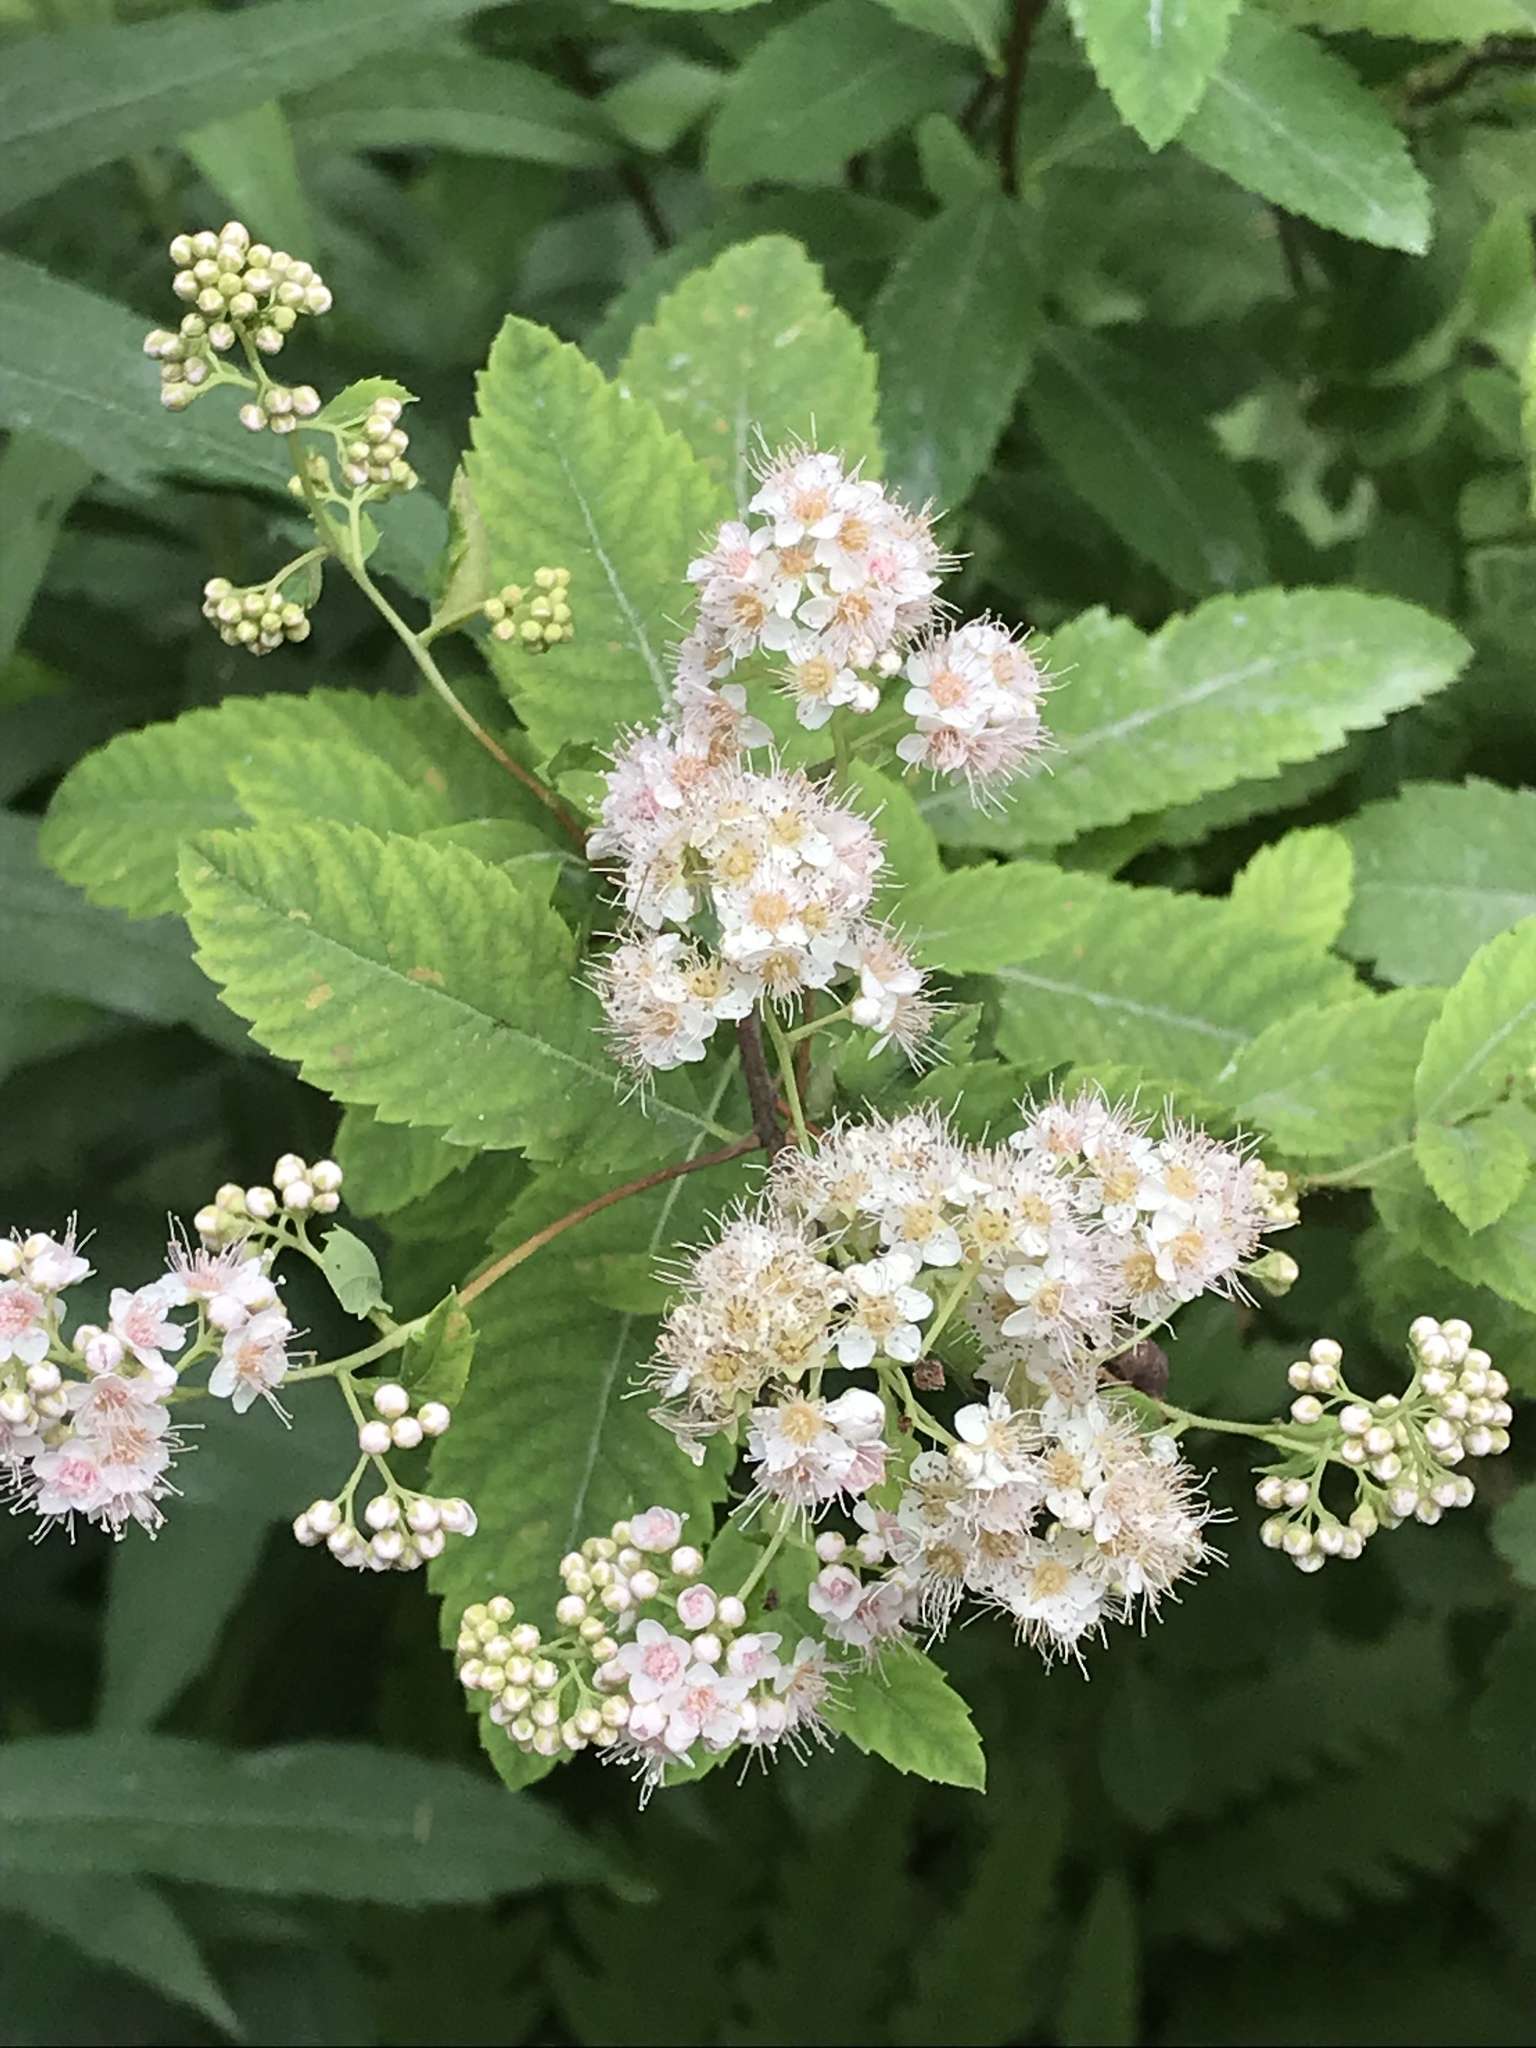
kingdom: Plantae
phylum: Tracheophyta
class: Magnoliopsida
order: Rosales
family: Rosaceae
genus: Spiraea
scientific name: Spiraea alba
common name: Pale bridewort
